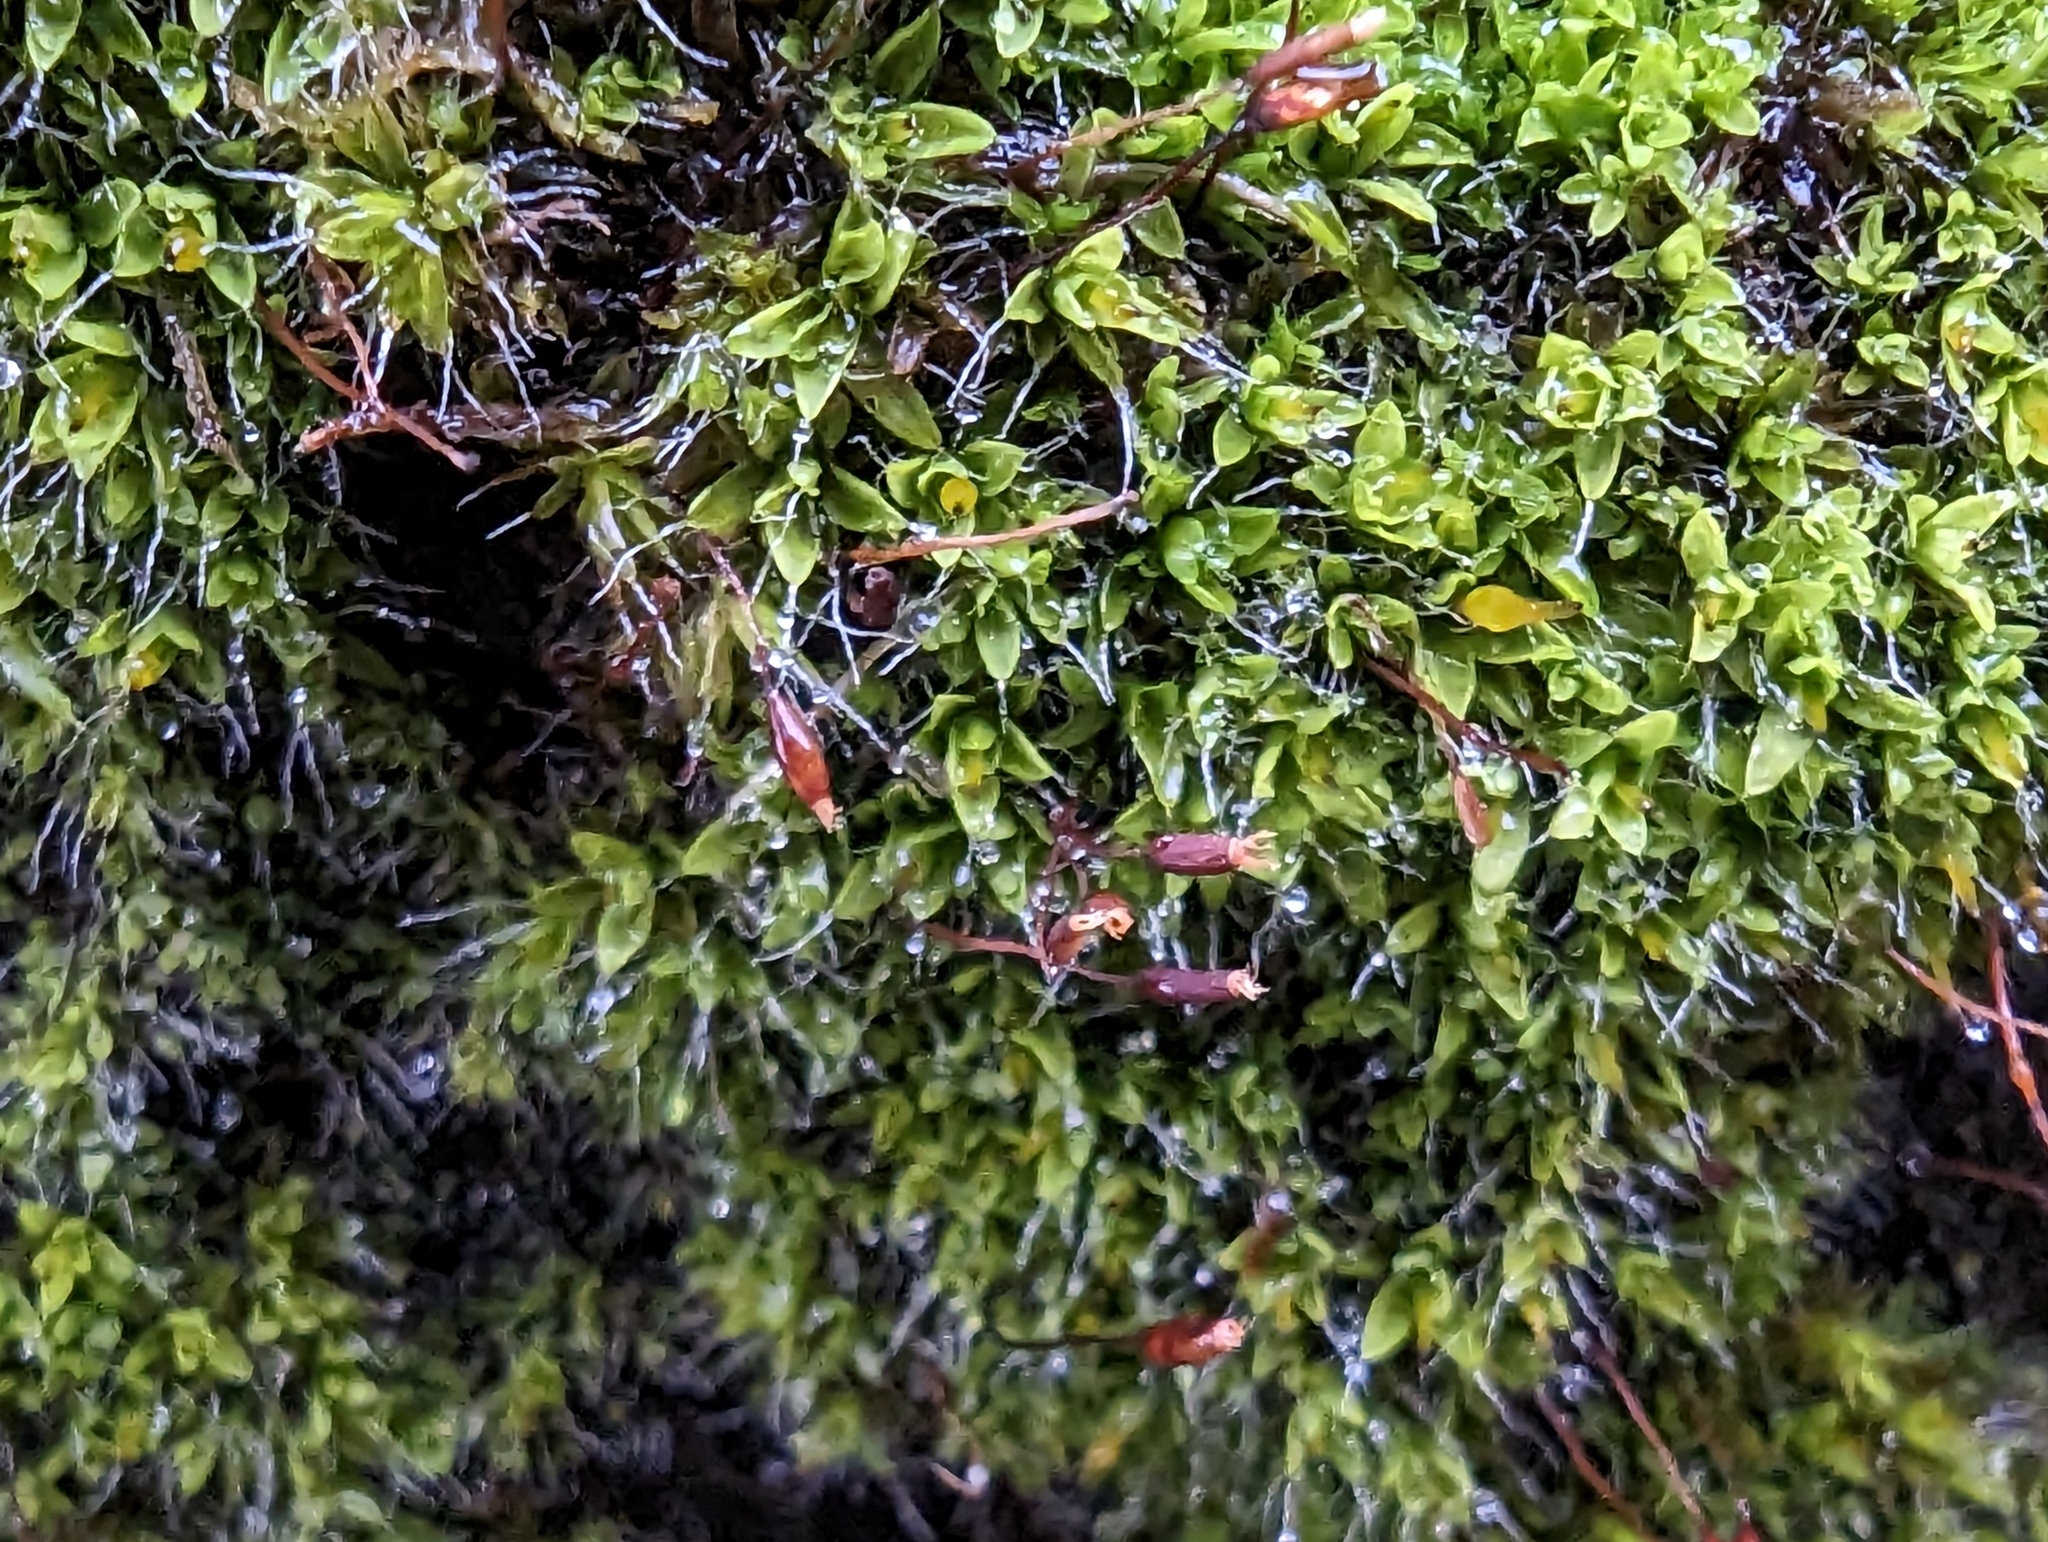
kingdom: Plantae
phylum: Bryophyta
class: Bryopsida
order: Pottiales
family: Pottiaceae
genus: Tortula
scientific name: Tortula muralis
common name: Wall screw-moss
